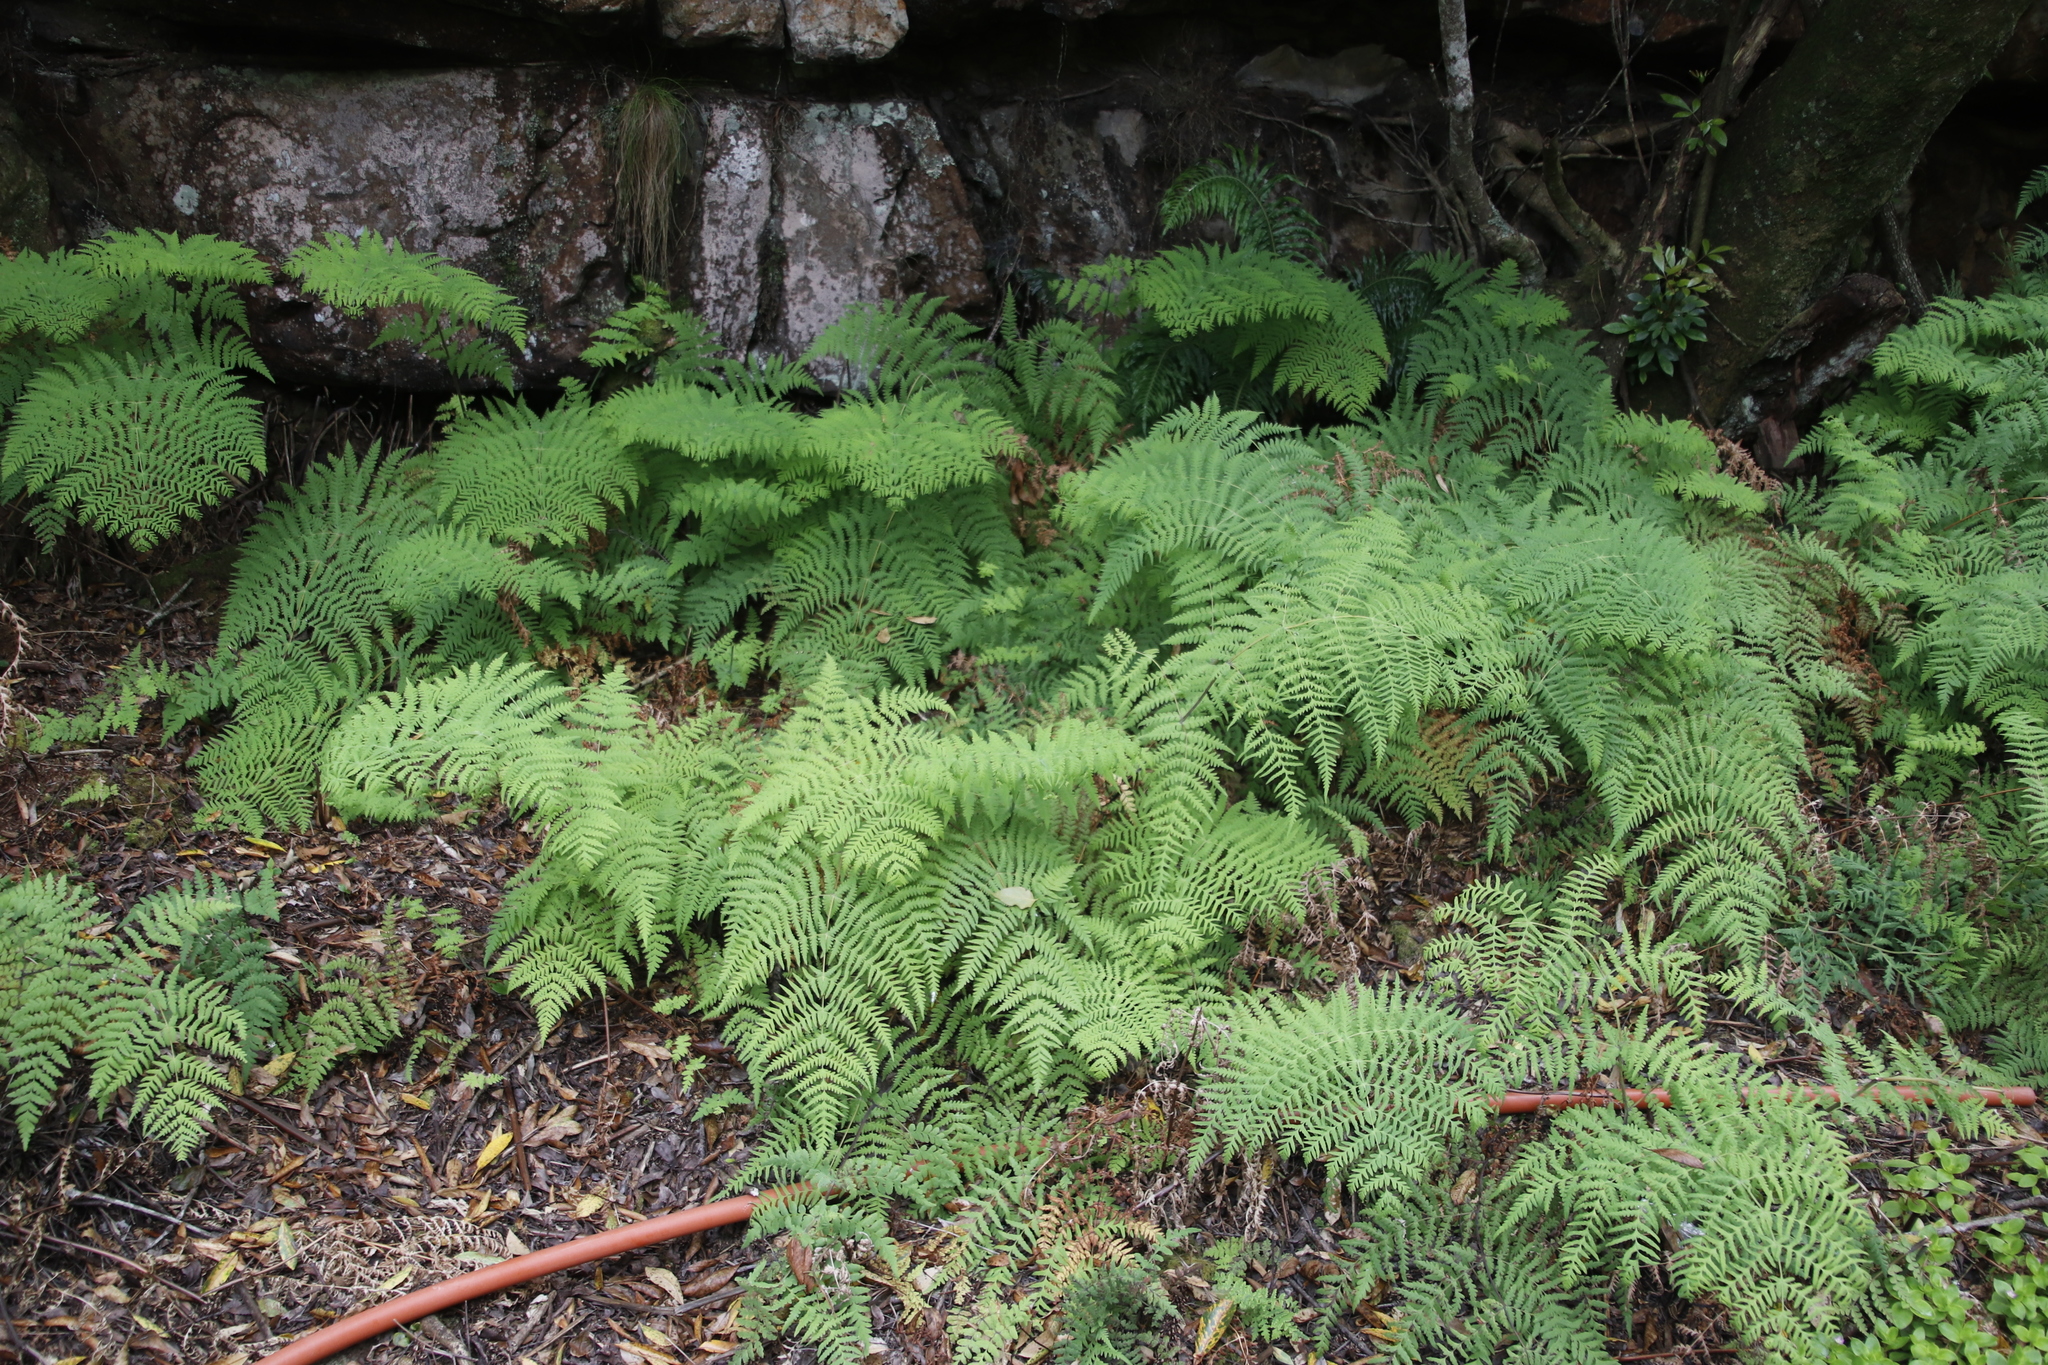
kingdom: Plantae
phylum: Tracheophyta
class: Polypodiopsida
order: Polypodiales
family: Dennstaedtiaceae
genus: Histiopteris
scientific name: Histiopteris incisa
